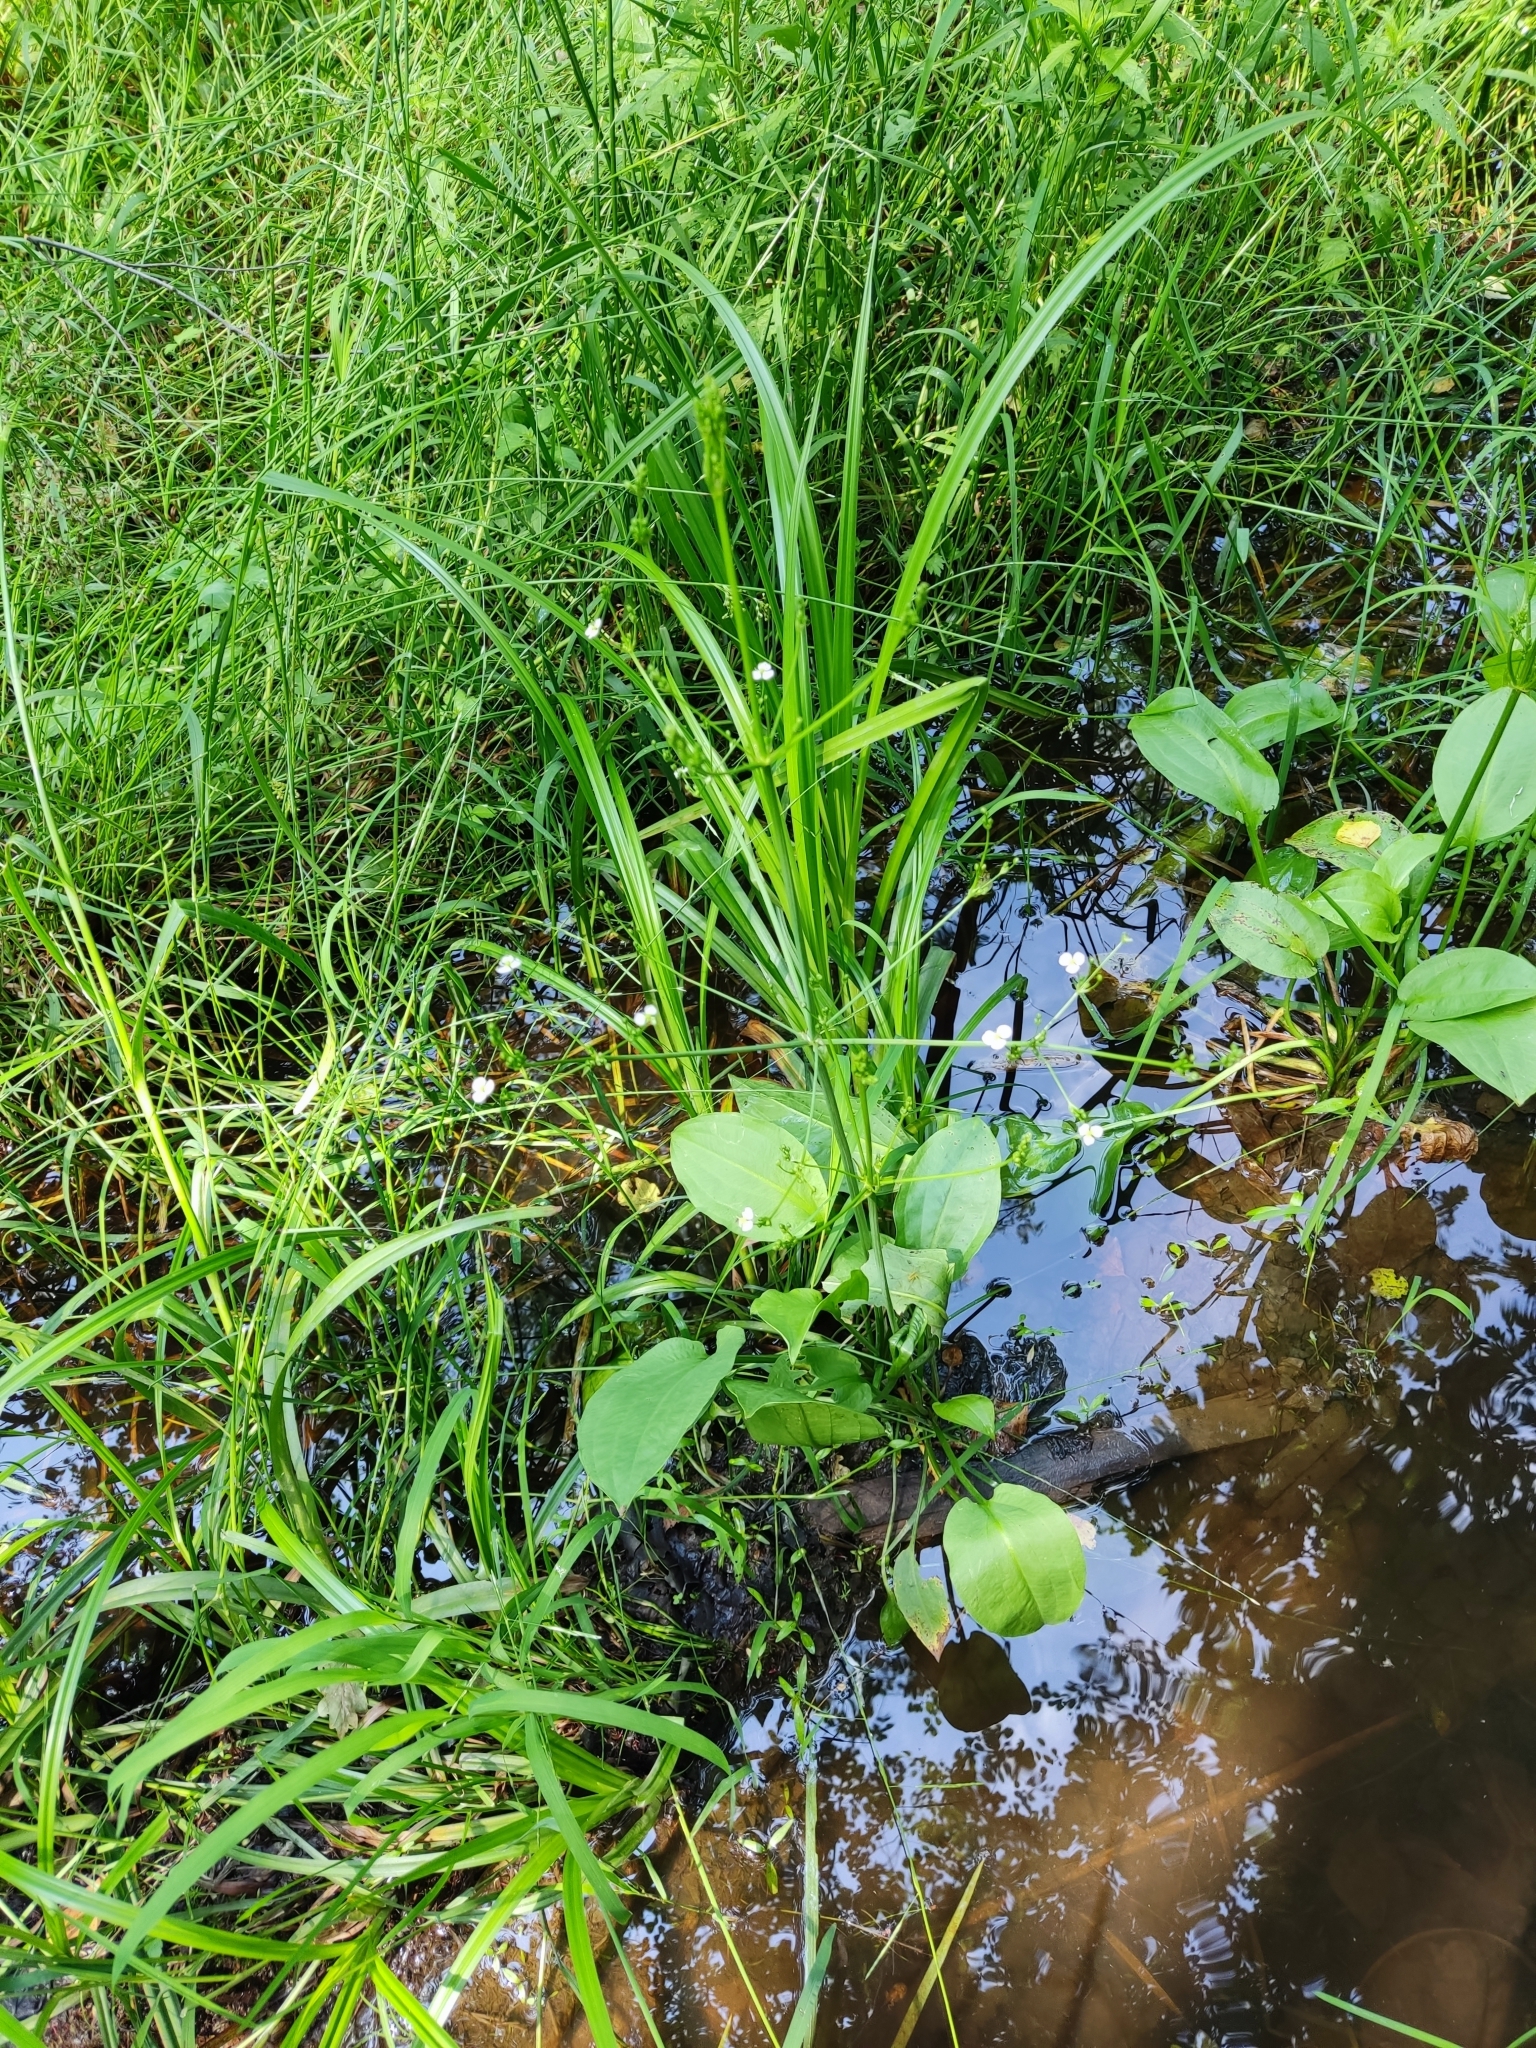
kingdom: Plantae
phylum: Tracheophyta
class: Liliopsida
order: Alismatales
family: Alismataceae
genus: Alisma
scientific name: Alisma plantago-aquatica
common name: Water-plantain
